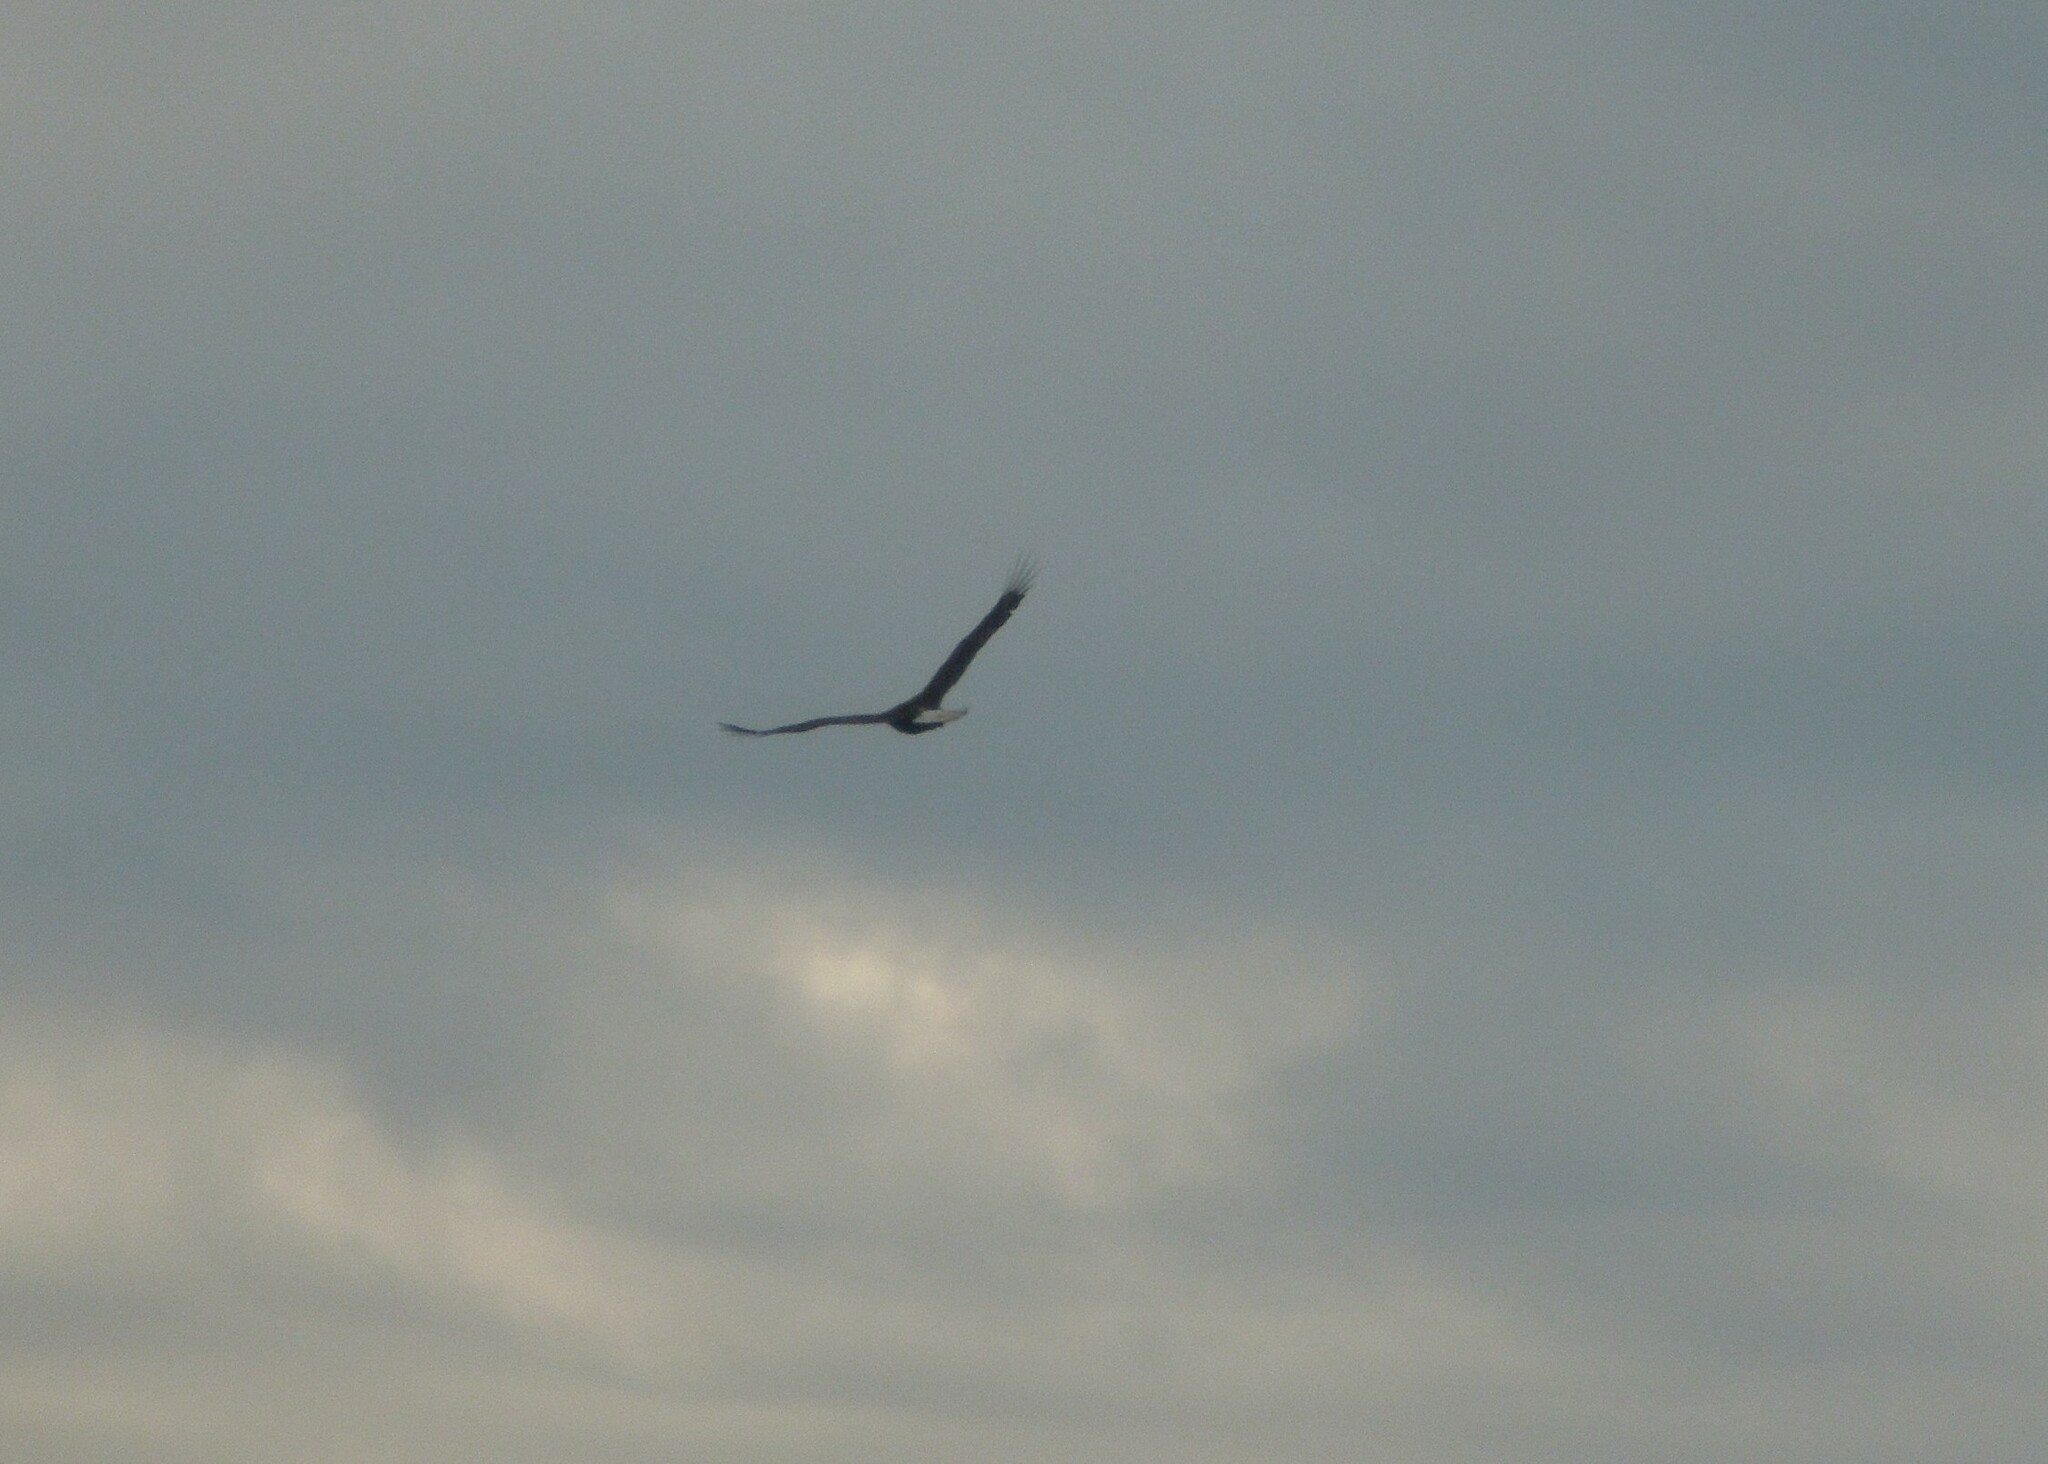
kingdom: Animalia
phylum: Chordata
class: Aves
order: Accipitriformes
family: Accipitridae
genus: Haliaeetus
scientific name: Haliaeetus leucocephalus
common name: Bald eagle
